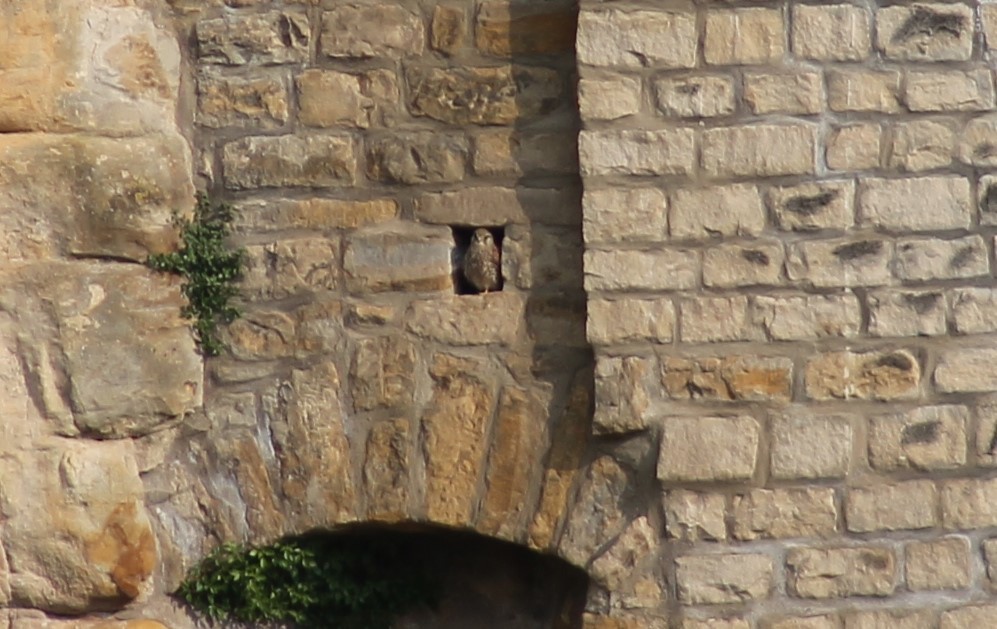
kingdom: Animalia
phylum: Chordata
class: Aves
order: Falconiformes
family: Falconidae
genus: Falco
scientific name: Falco tinnunculus
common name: Common kestrel
